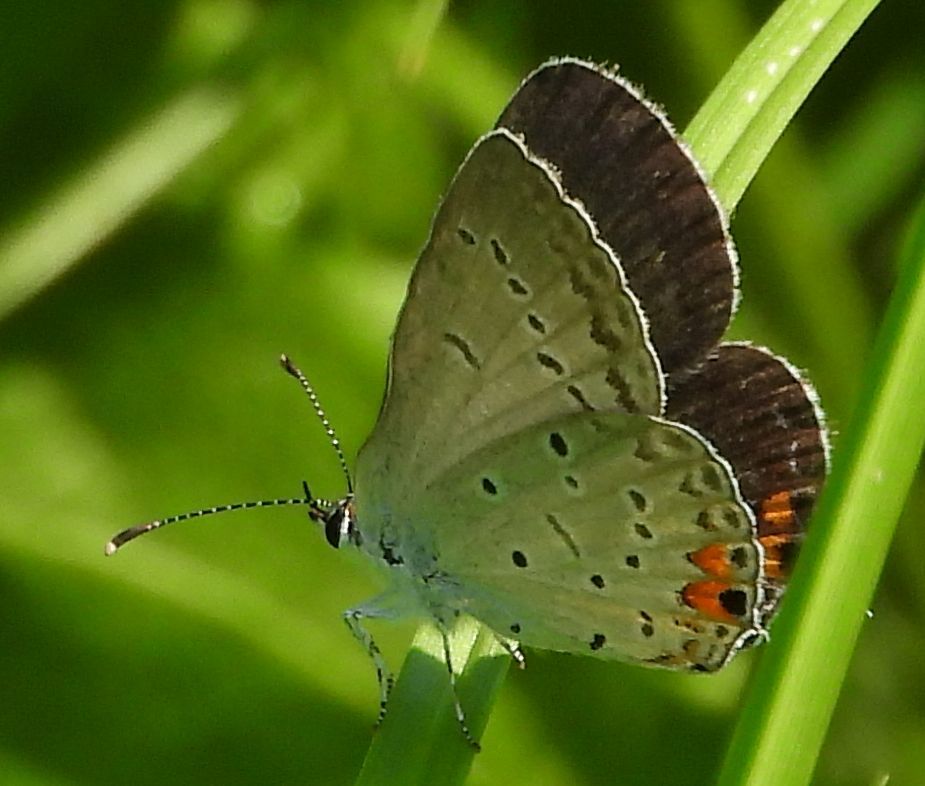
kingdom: Animalia
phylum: Arthropoda
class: Insecta
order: Lepidoptera
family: Lycaenidae
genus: Elkalyce
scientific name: Elkalyce comyntas
